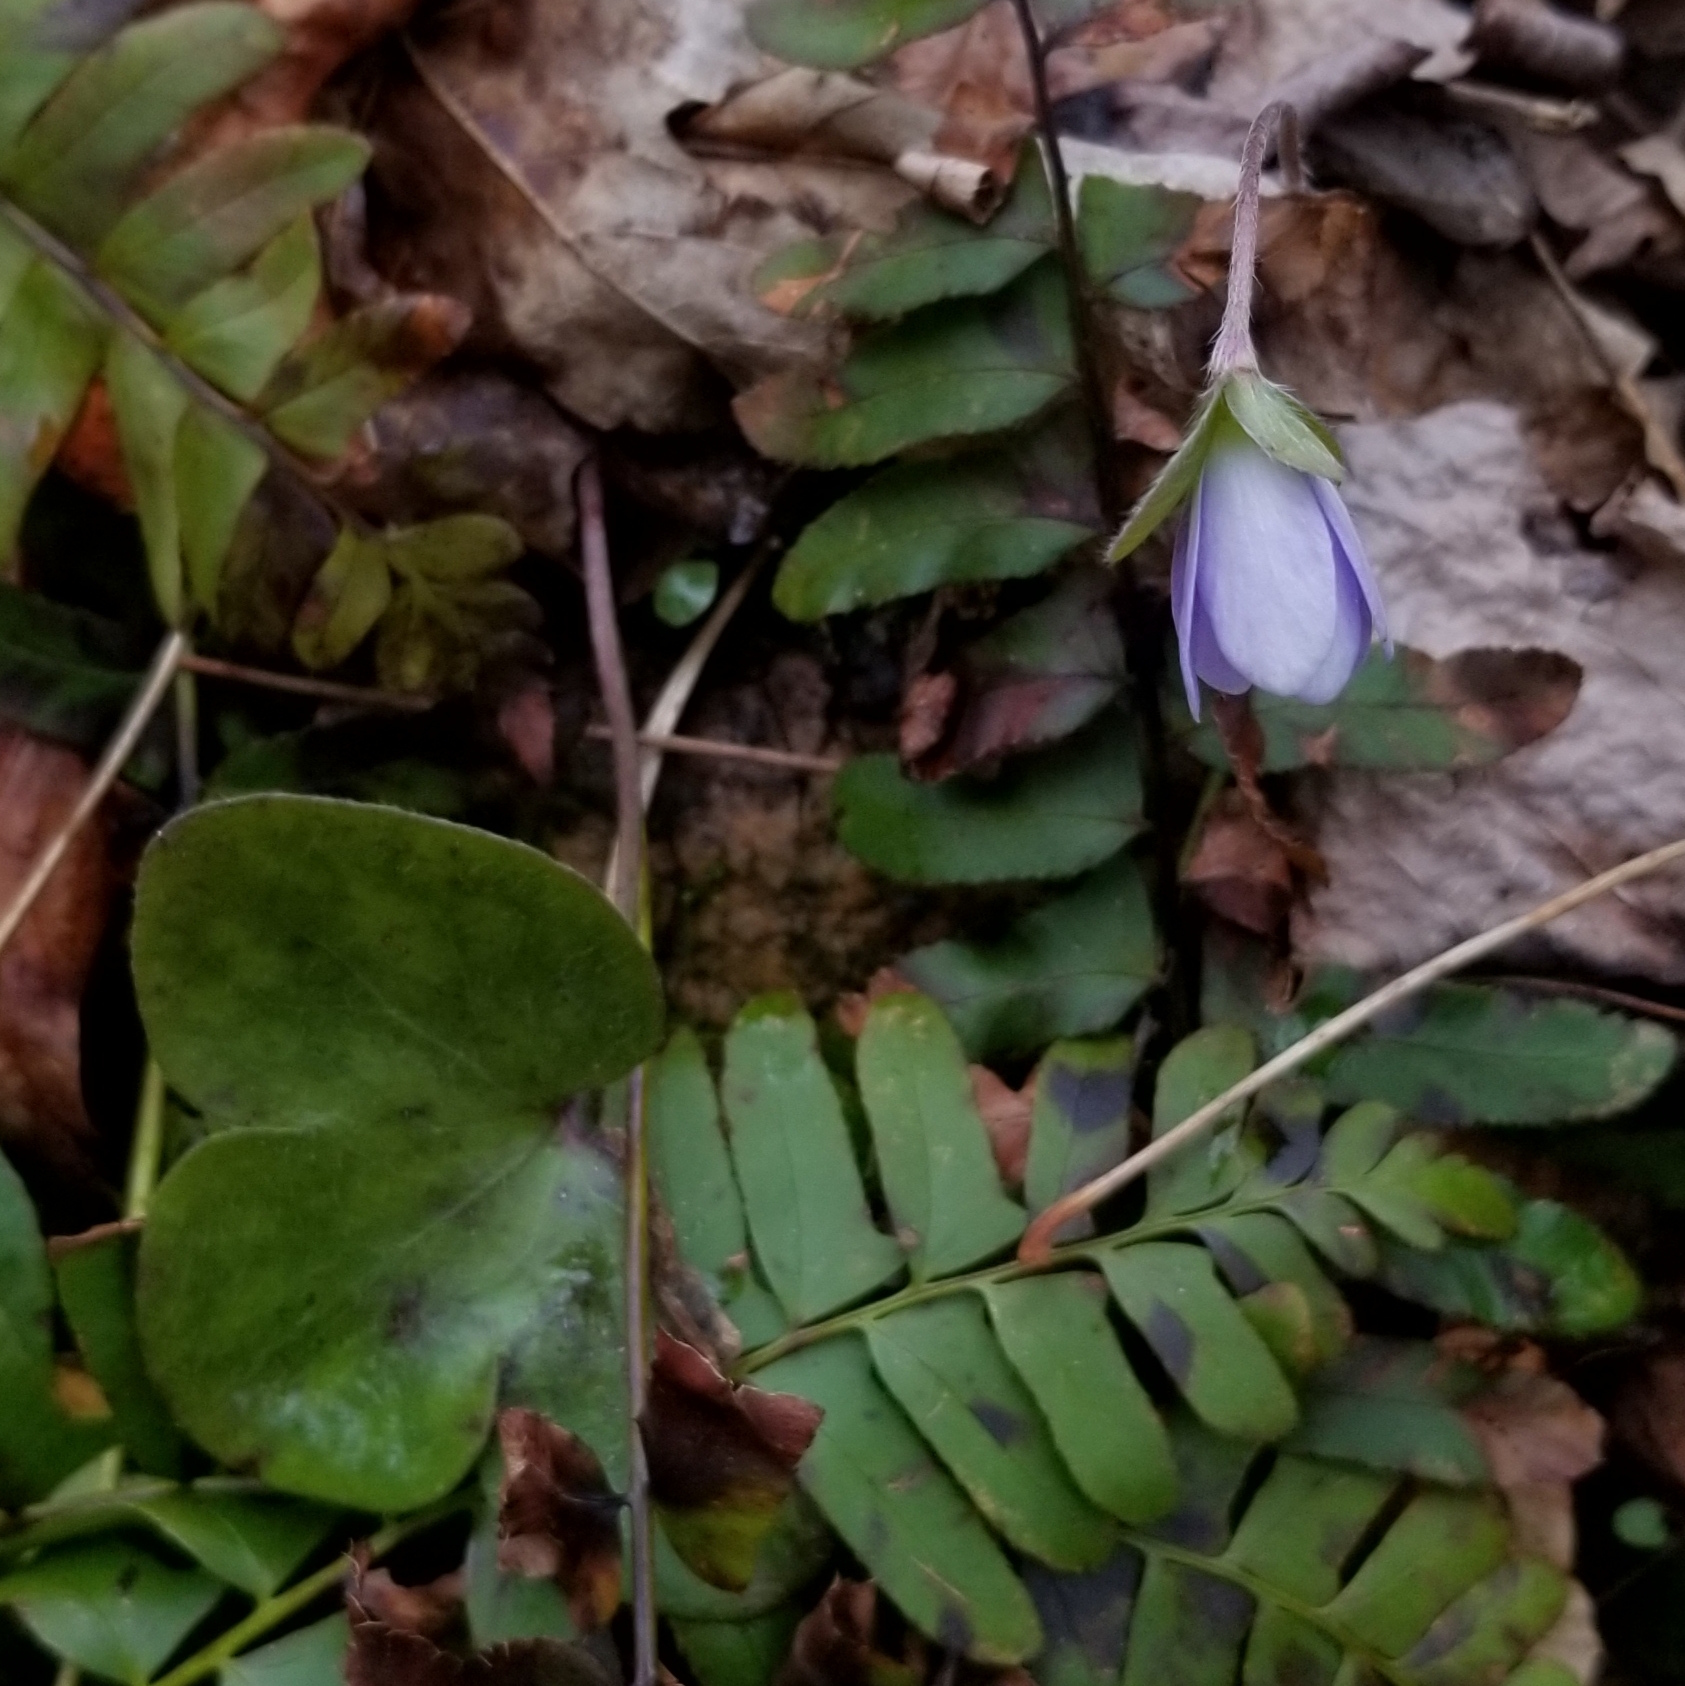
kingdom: Plantae
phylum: Tracheophyta
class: Magnoliopsida
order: Ranunculales
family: Ranunculaceae
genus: Hepatica
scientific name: Hepatica americana
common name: American hepatica
